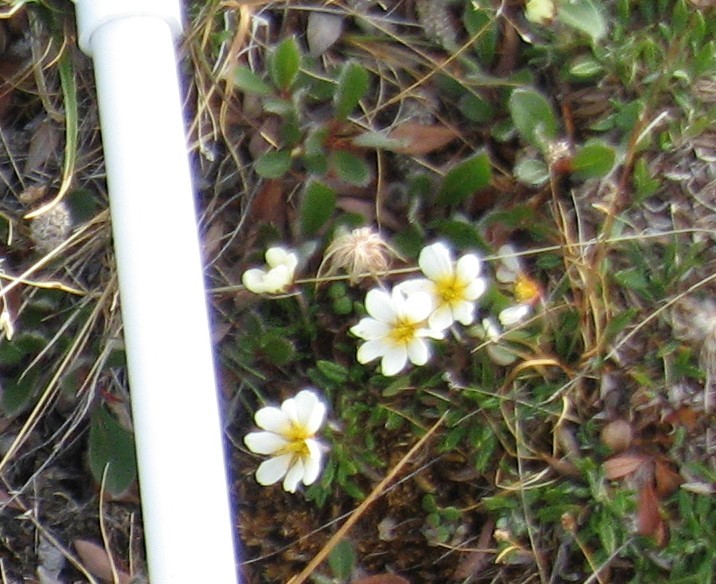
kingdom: Plantae
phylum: Tracheophyta
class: Magnoliopsida
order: Rosales
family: Rosaceae
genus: Dryas
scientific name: Dryas integrifolia
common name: Entire-leaved mountain avens
